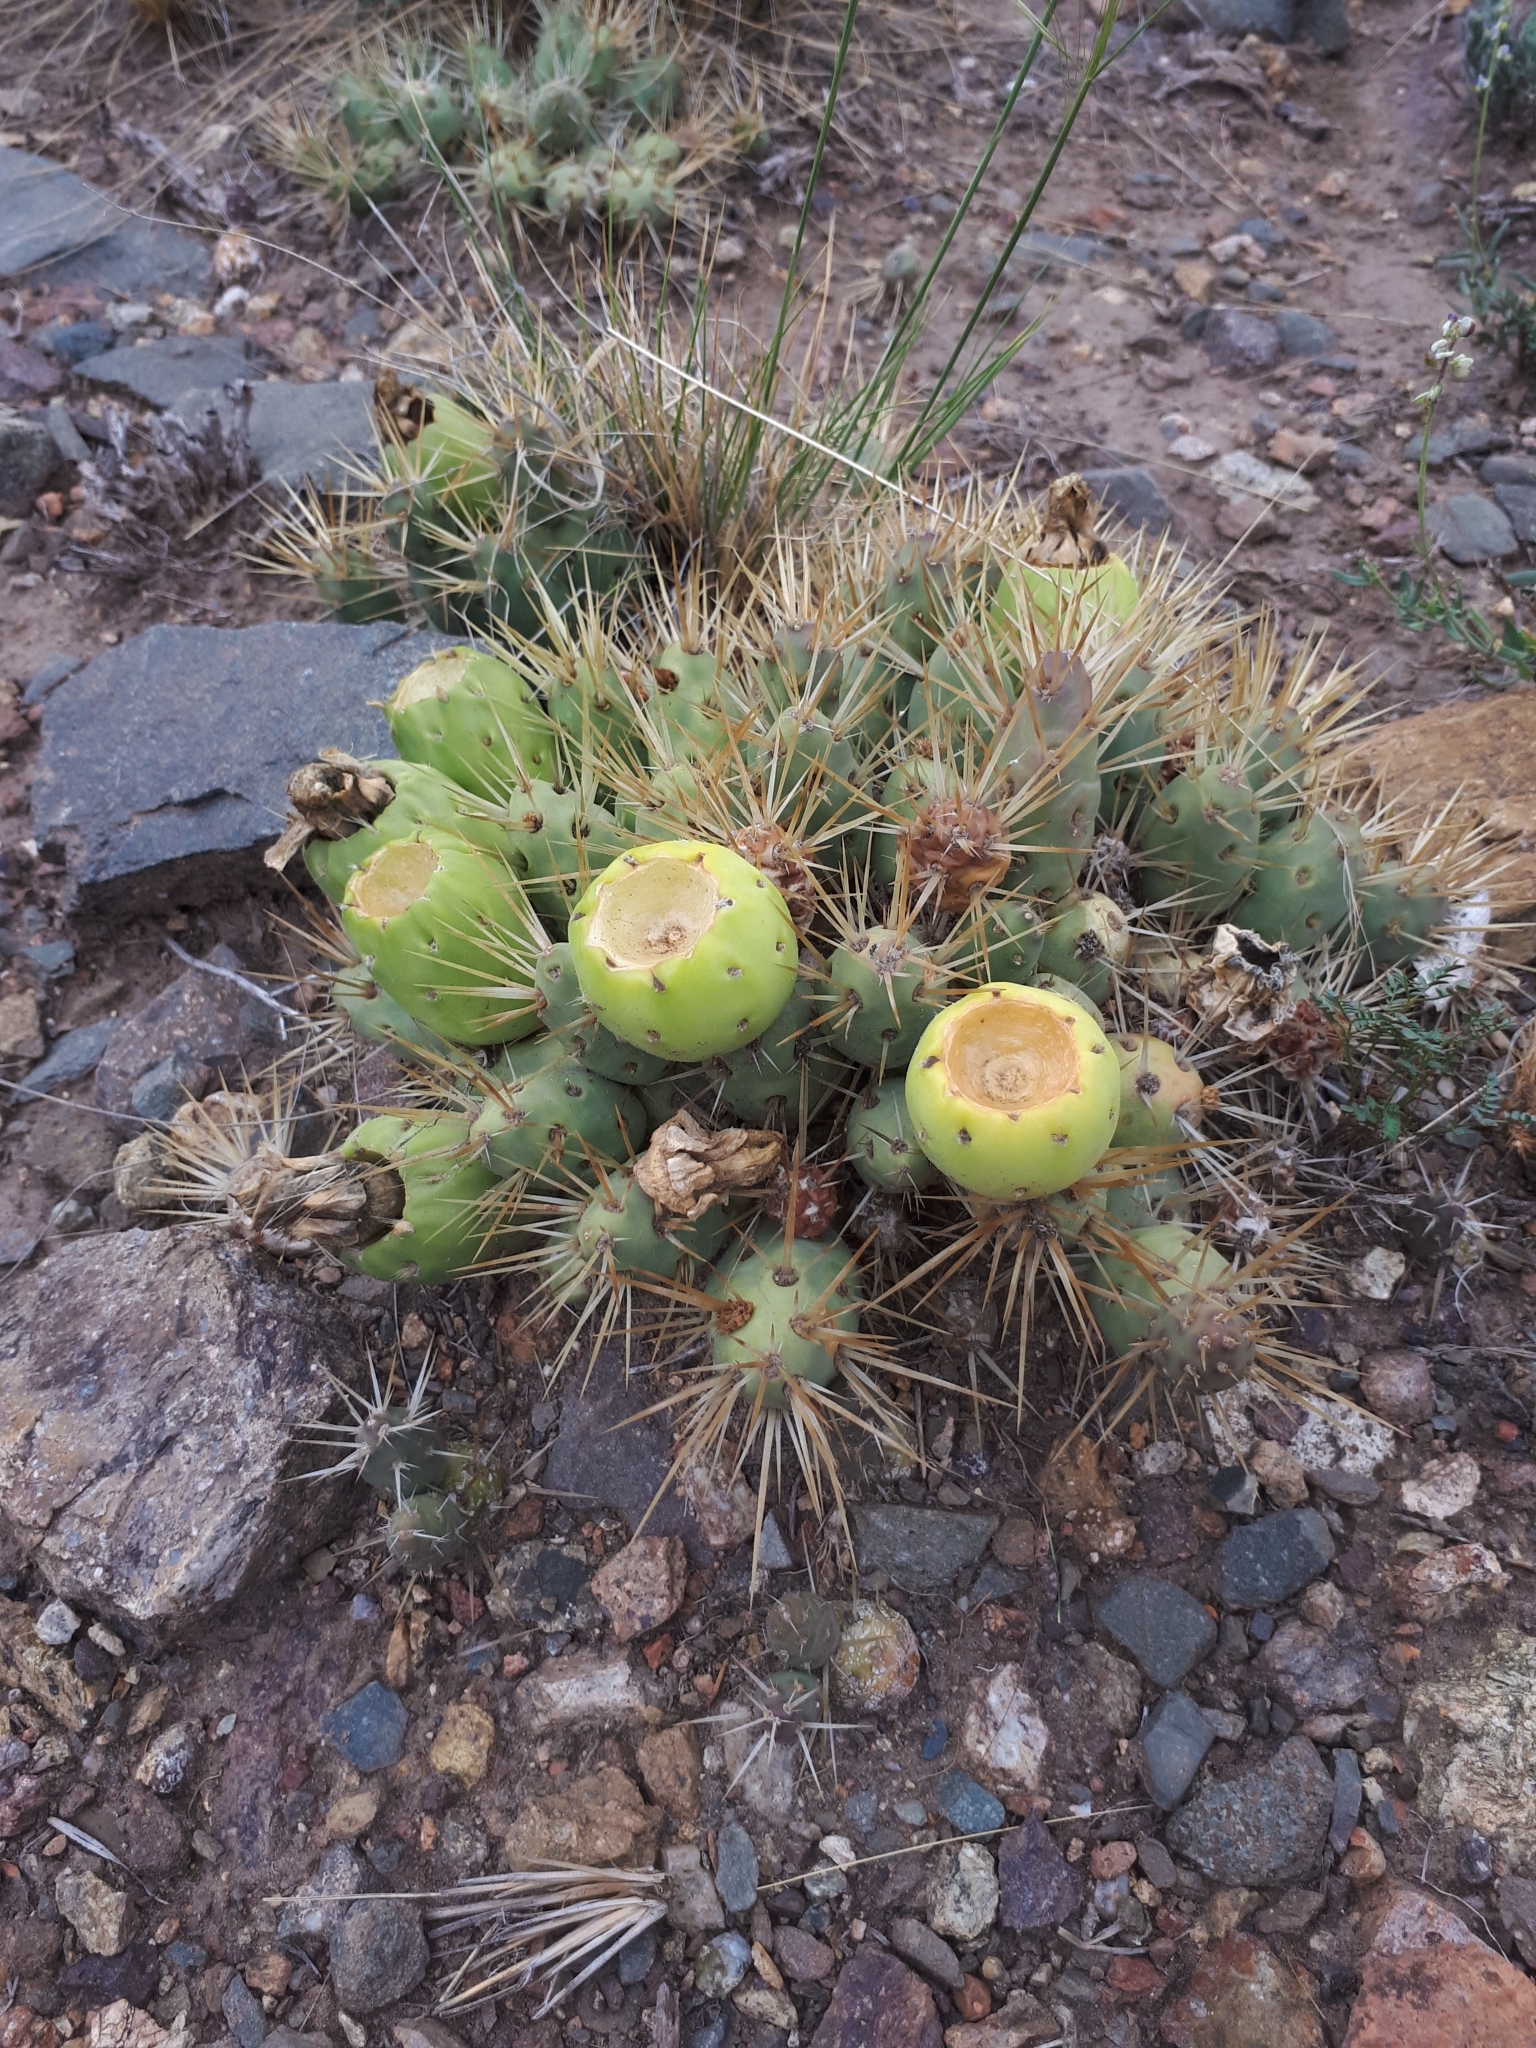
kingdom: Plantae
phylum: Tracheophyta
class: Magnoliopsida
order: Caryophyllales
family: Cactaceae
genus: Maihueniopsis
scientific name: Maihueniopsis ovata
